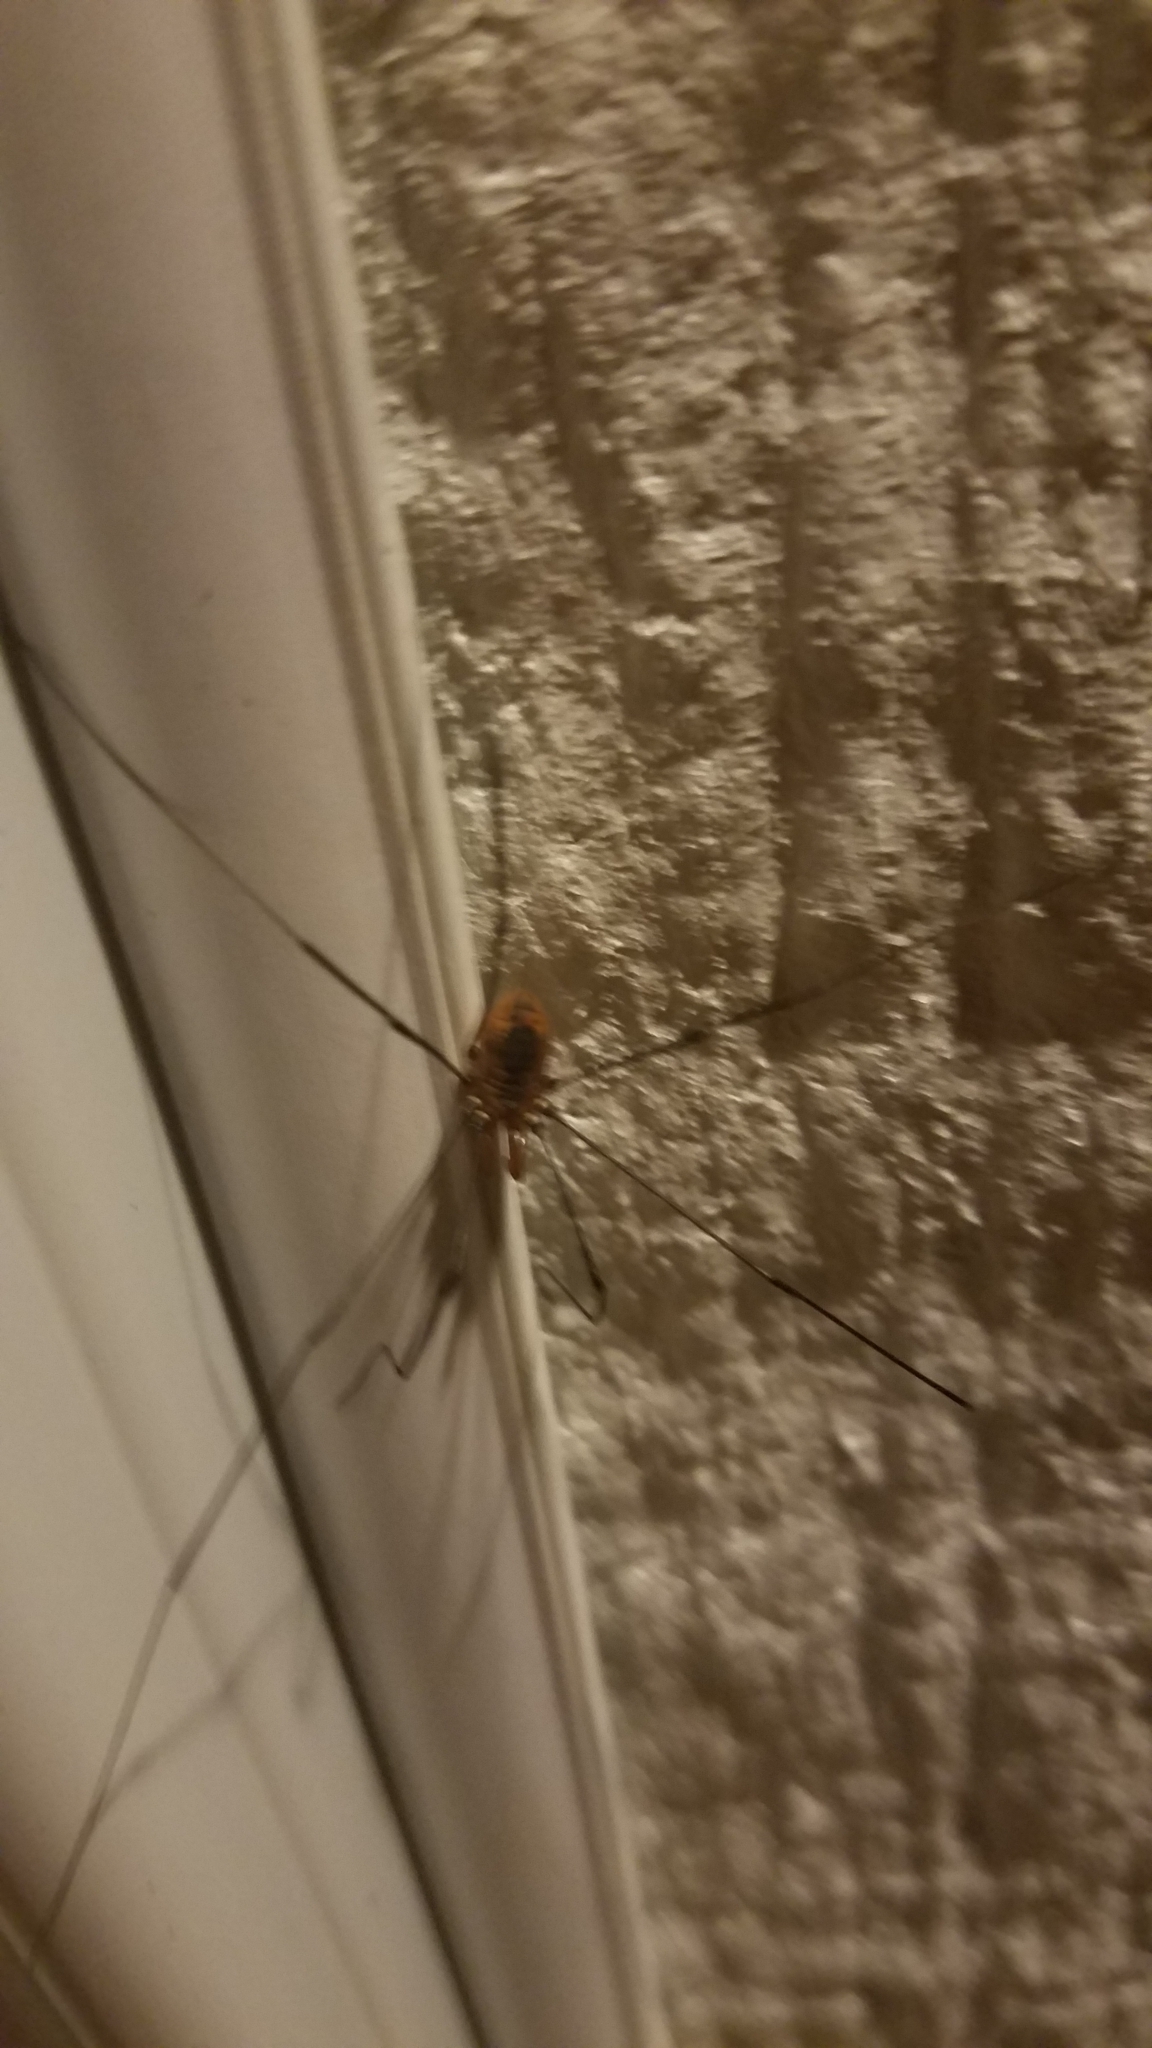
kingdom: Animalia
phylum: Arthropoda
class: Arachnida
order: Opiliones
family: Sclerosomatidae
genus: Leiobunum
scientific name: Leiobunum vittatum
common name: Eastern harvestman
